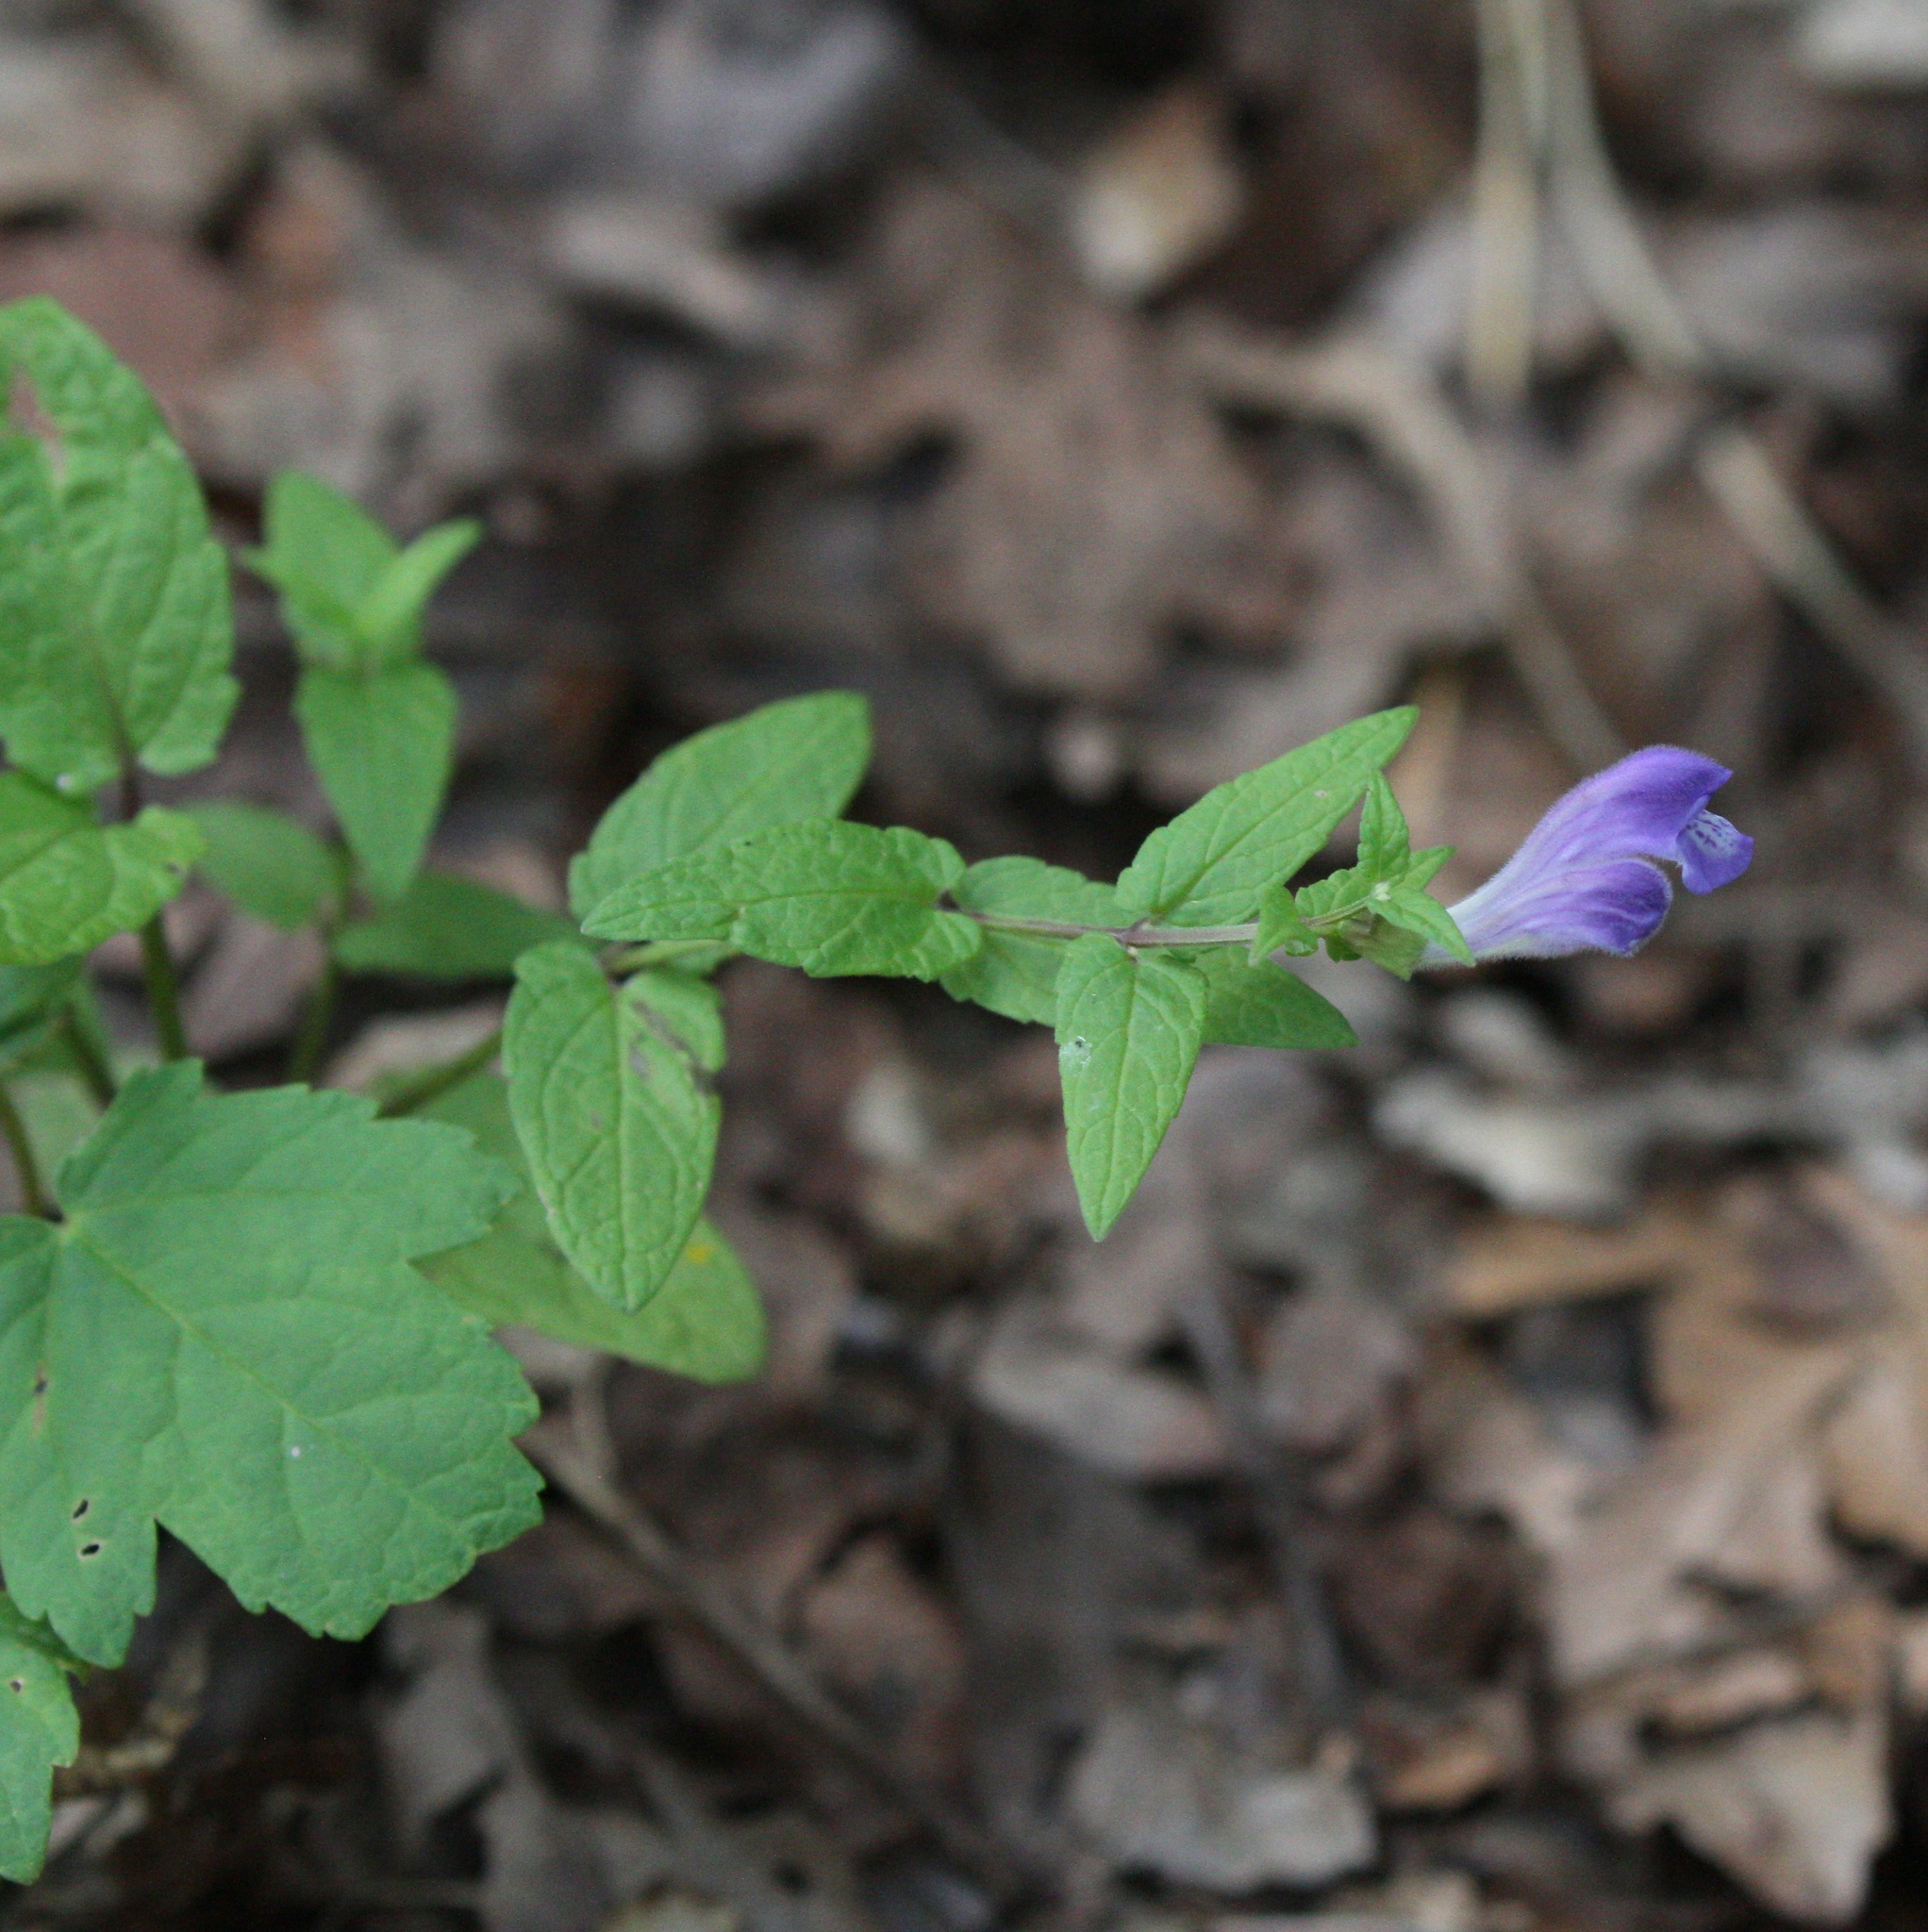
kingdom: Plantae
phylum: Tracheophyta
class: Magnoliopsida
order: Lamiales
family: Lamiaceae
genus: Scutellaria
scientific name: Scutellaria galericulata
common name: Skullcap
